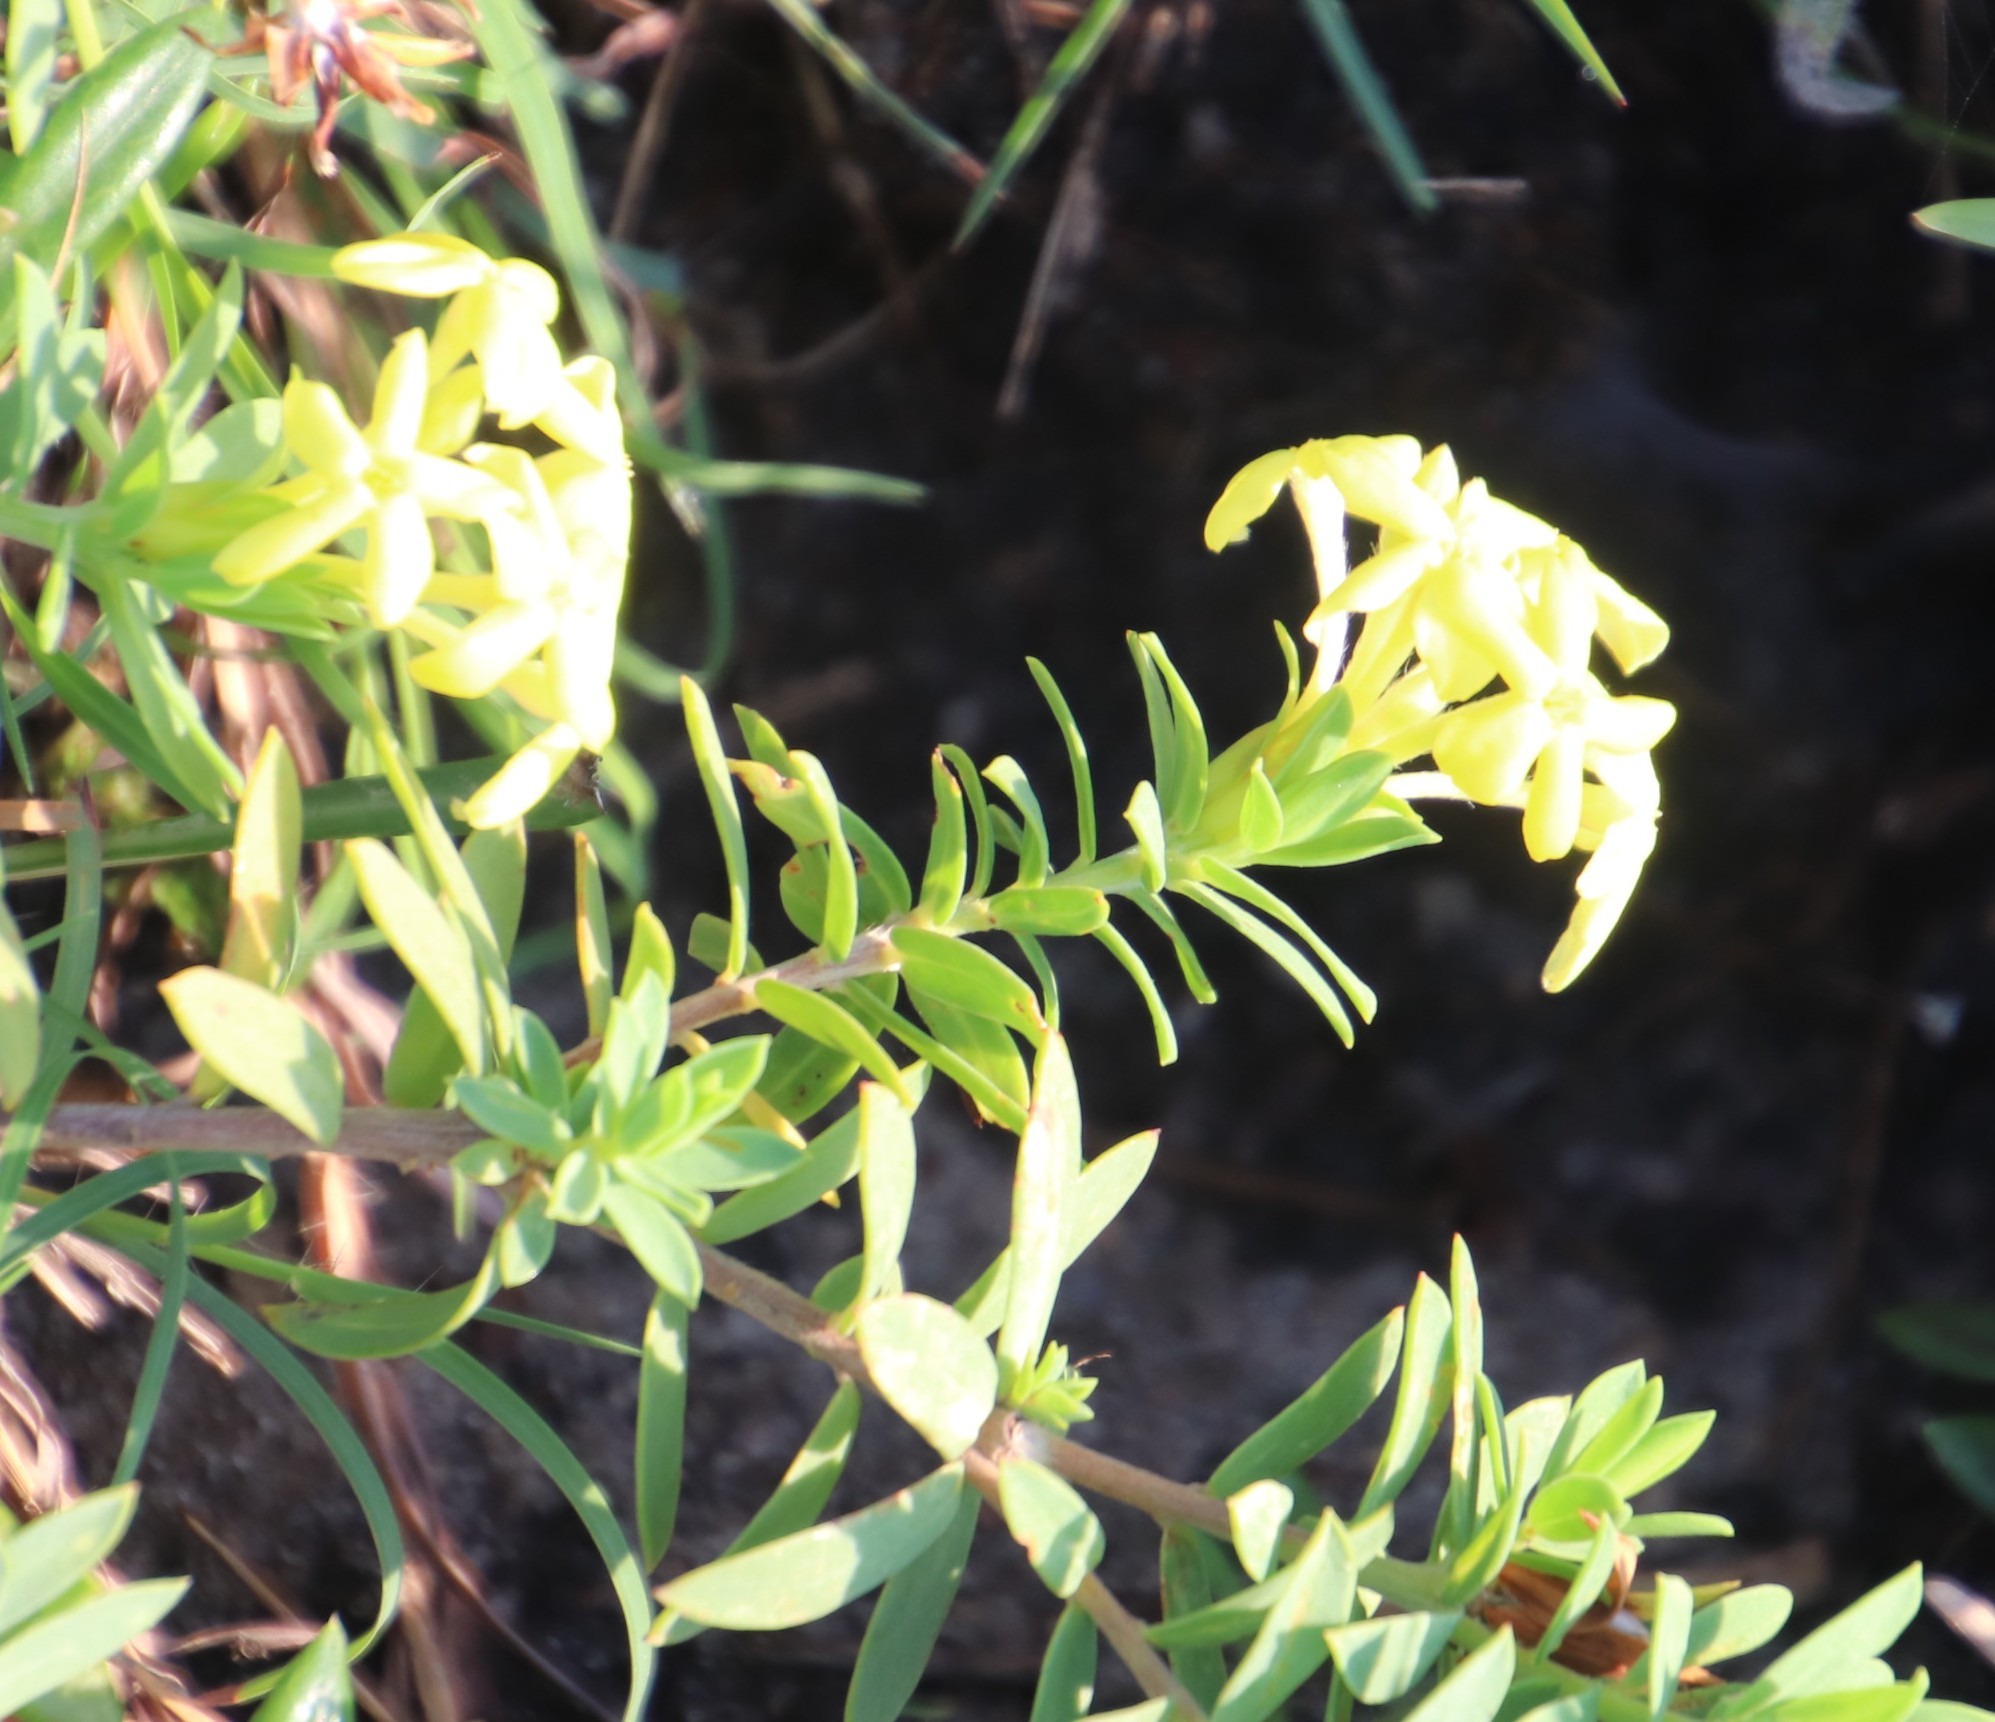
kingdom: Plantae
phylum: Tracheophyta
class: Magnoliopsida
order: Malvales
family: Thymelaeaceae
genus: Gnidia
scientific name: Gnidia triplinervis
